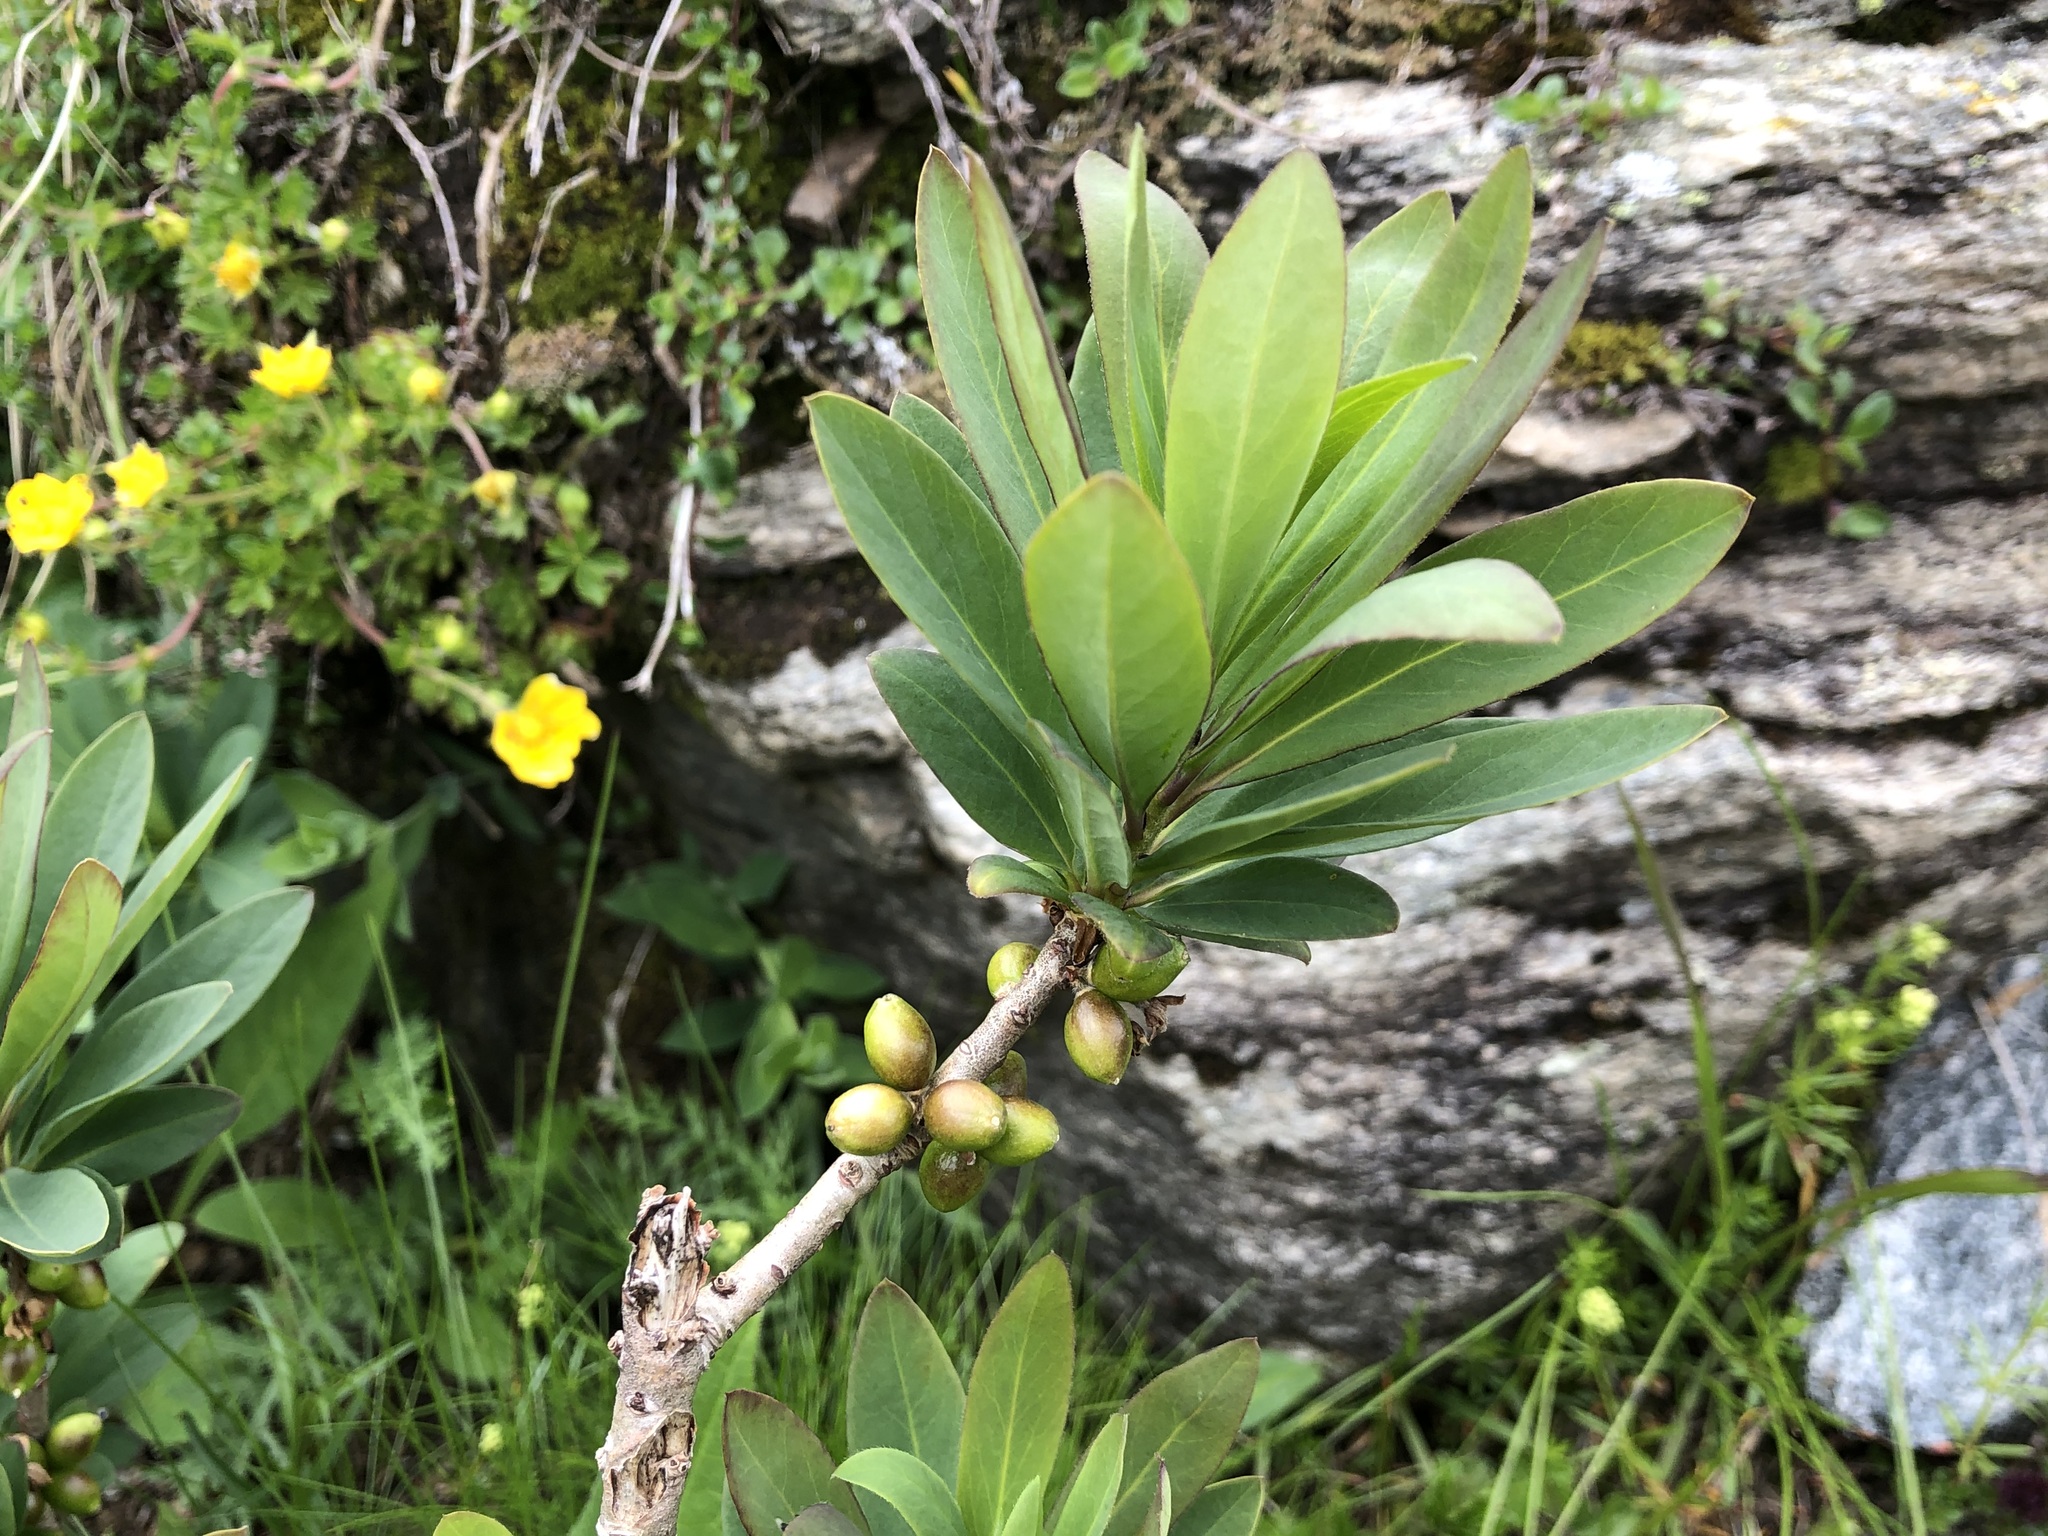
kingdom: Plantae
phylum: Tracheophyta
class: Magnoliopsida
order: Malvales
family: Thymelaeaceae
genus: Daphne
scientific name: Daphne mezereum
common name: Mezereon
